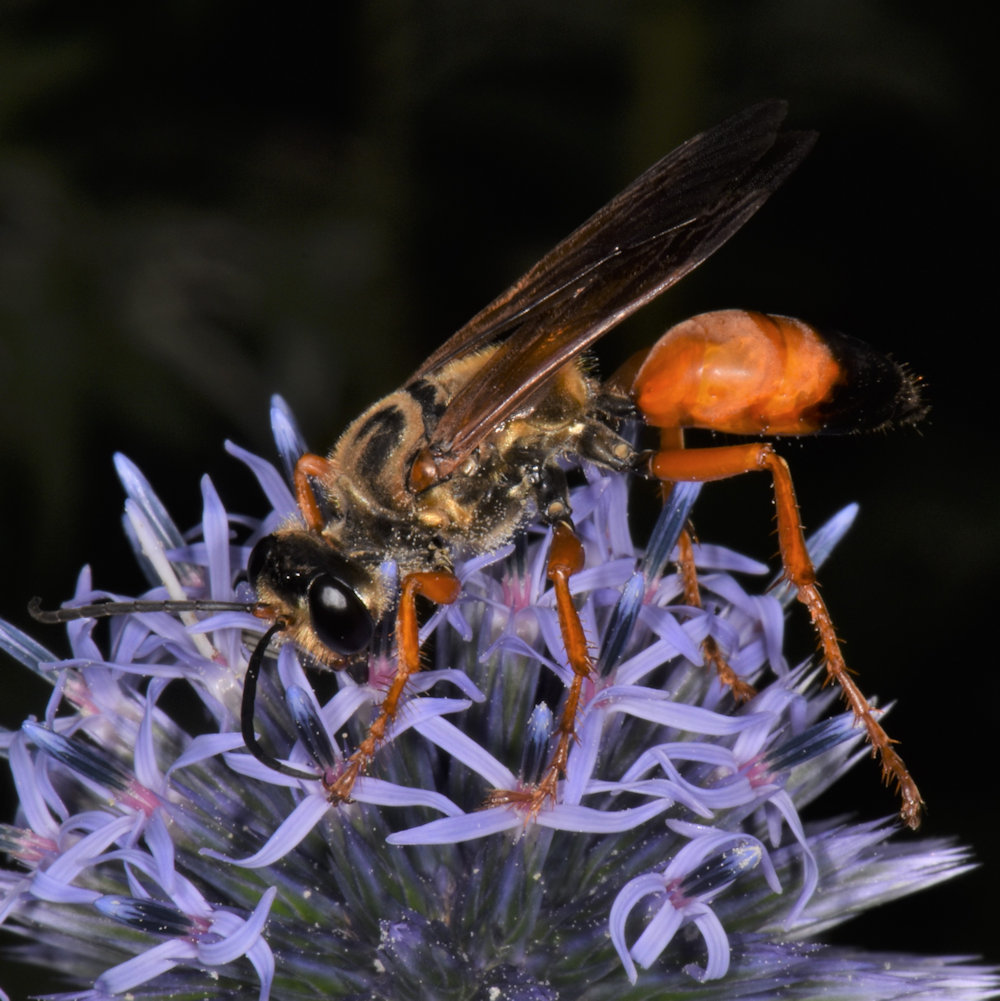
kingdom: Animalia
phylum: Arthropoda
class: Insecta
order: Hymenoptera
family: Sphecidae
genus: Sphex
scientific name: Sphex ichneumoneus
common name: Great golden digger wasp
